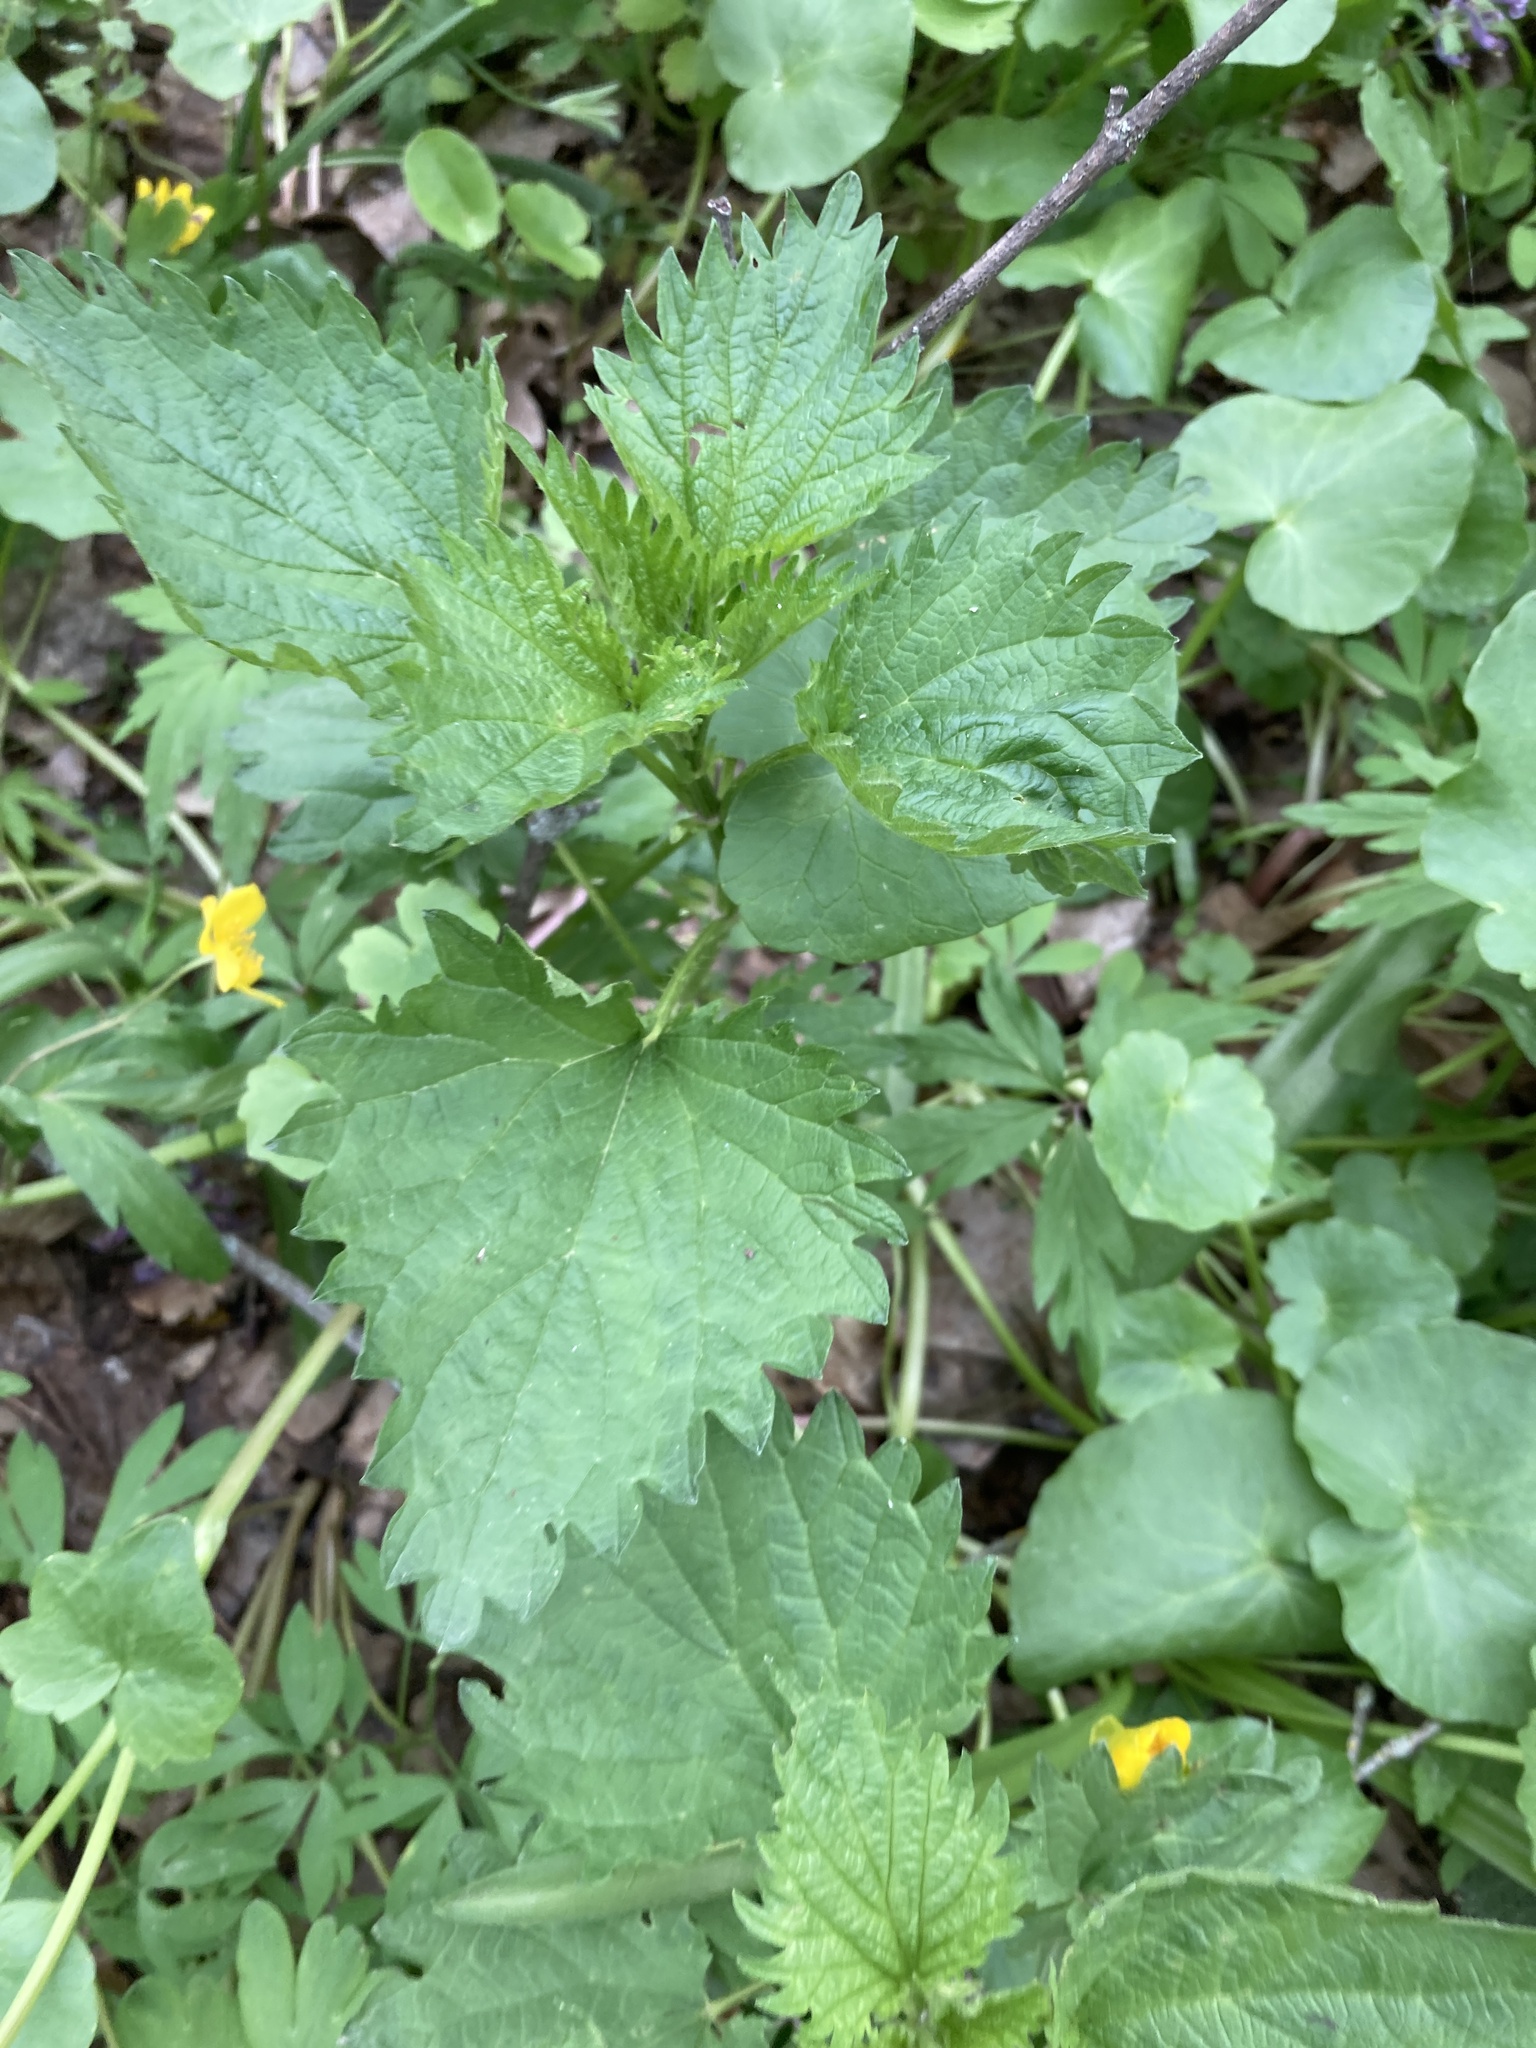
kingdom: Plantae
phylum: Tracheophyta
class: Magnoliopsida
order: Rosales
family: Urticaceae
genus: Urtica
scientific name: Urtica dioica
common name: Common nettle
